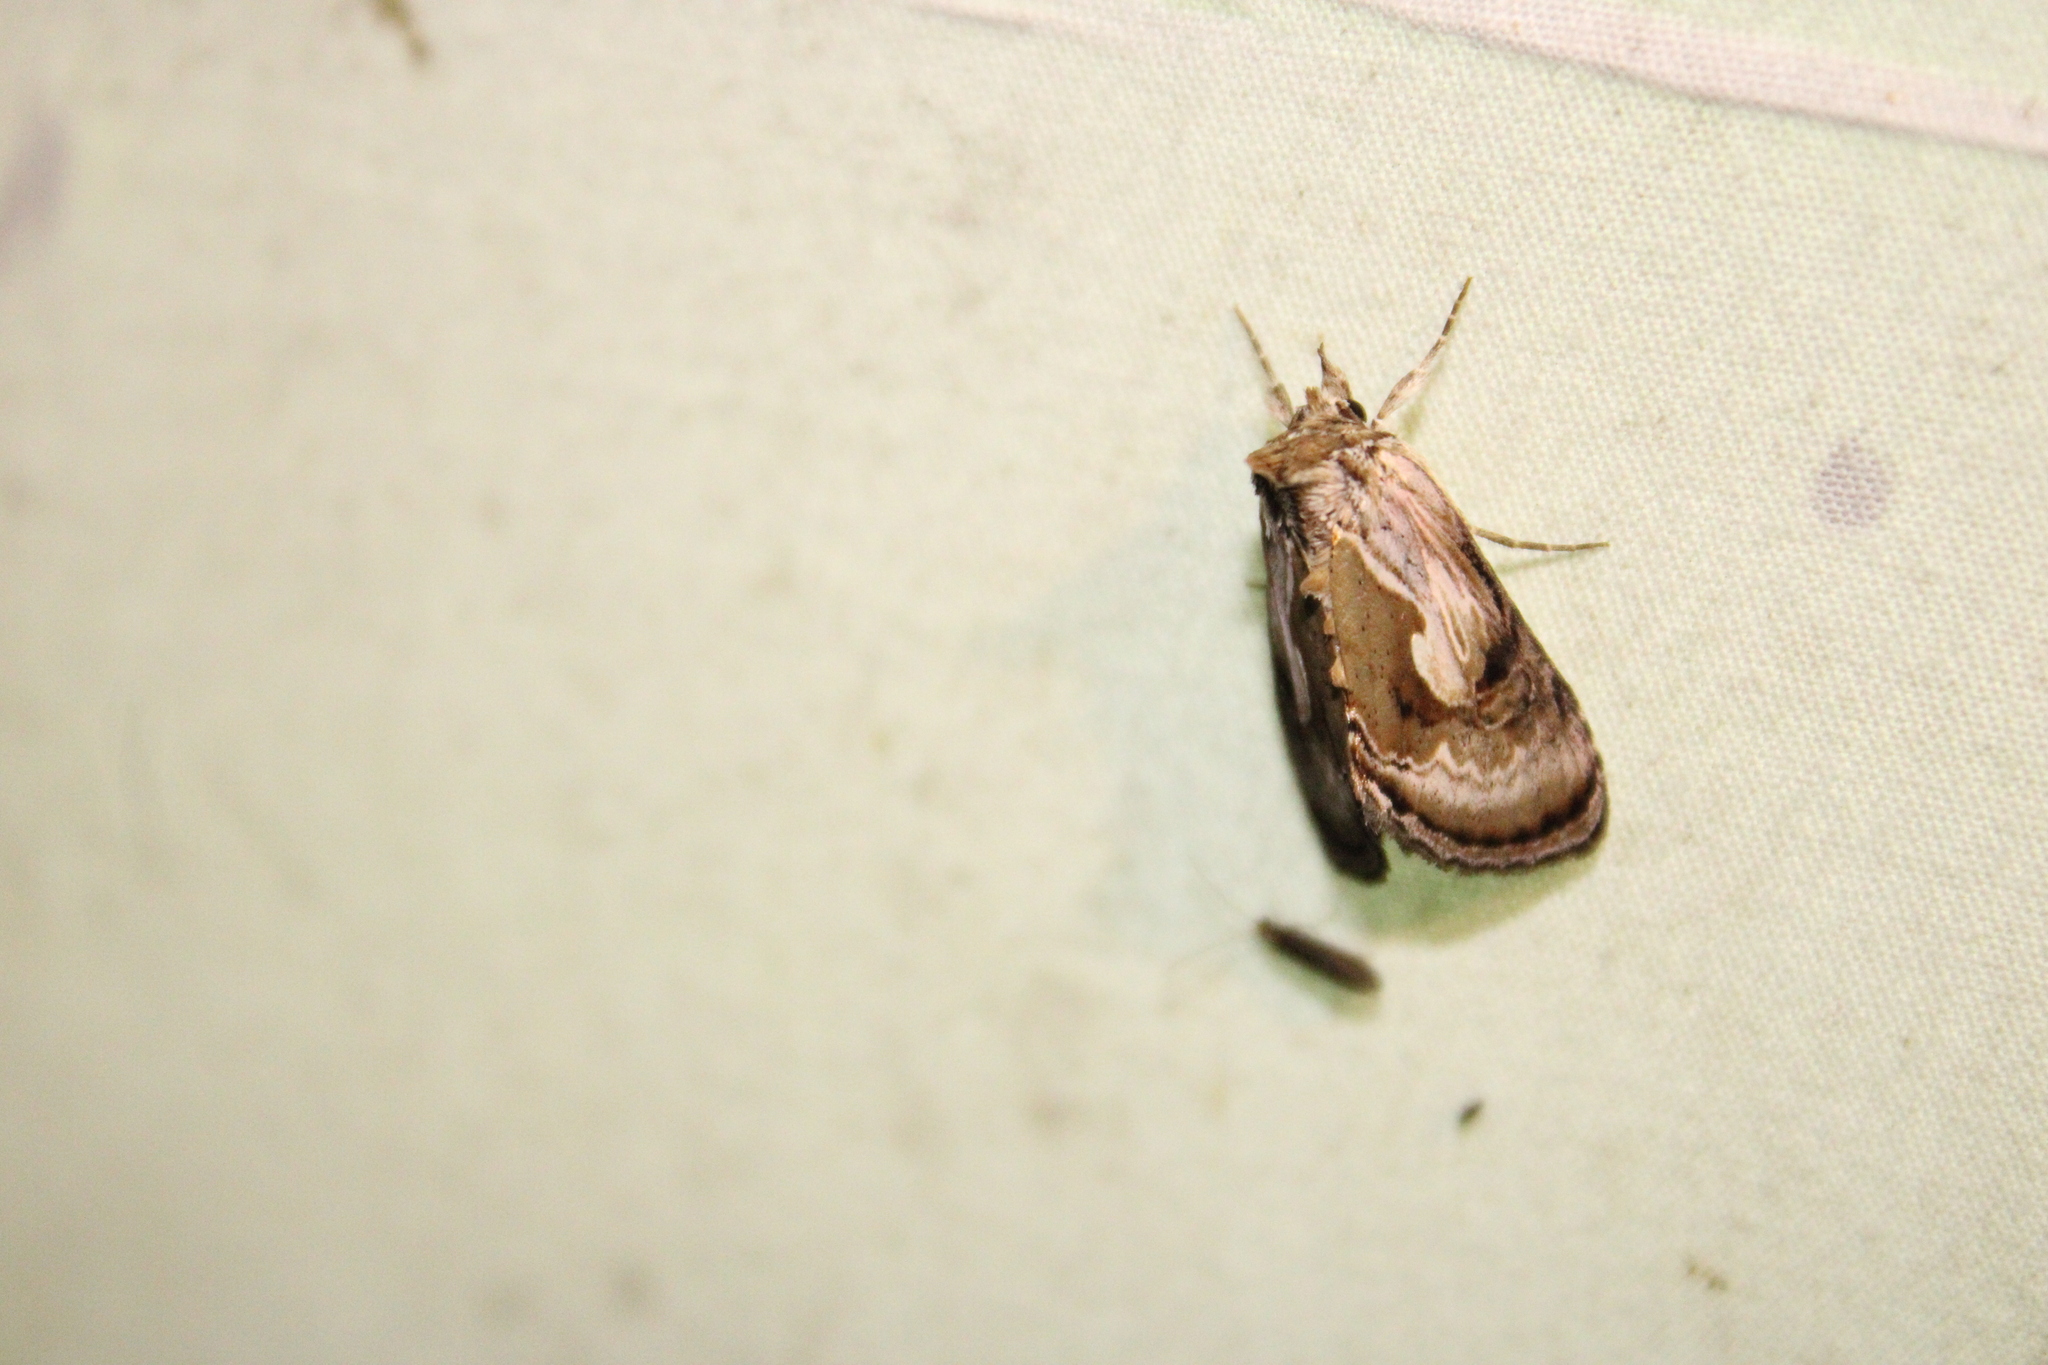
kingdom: Animalia
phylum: Arthropoda
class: Insecta
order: Lepidoptera
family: Noctuidae
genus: Chrysanympha
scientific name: Chrysanympha formosa
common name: Formosa looper moth
